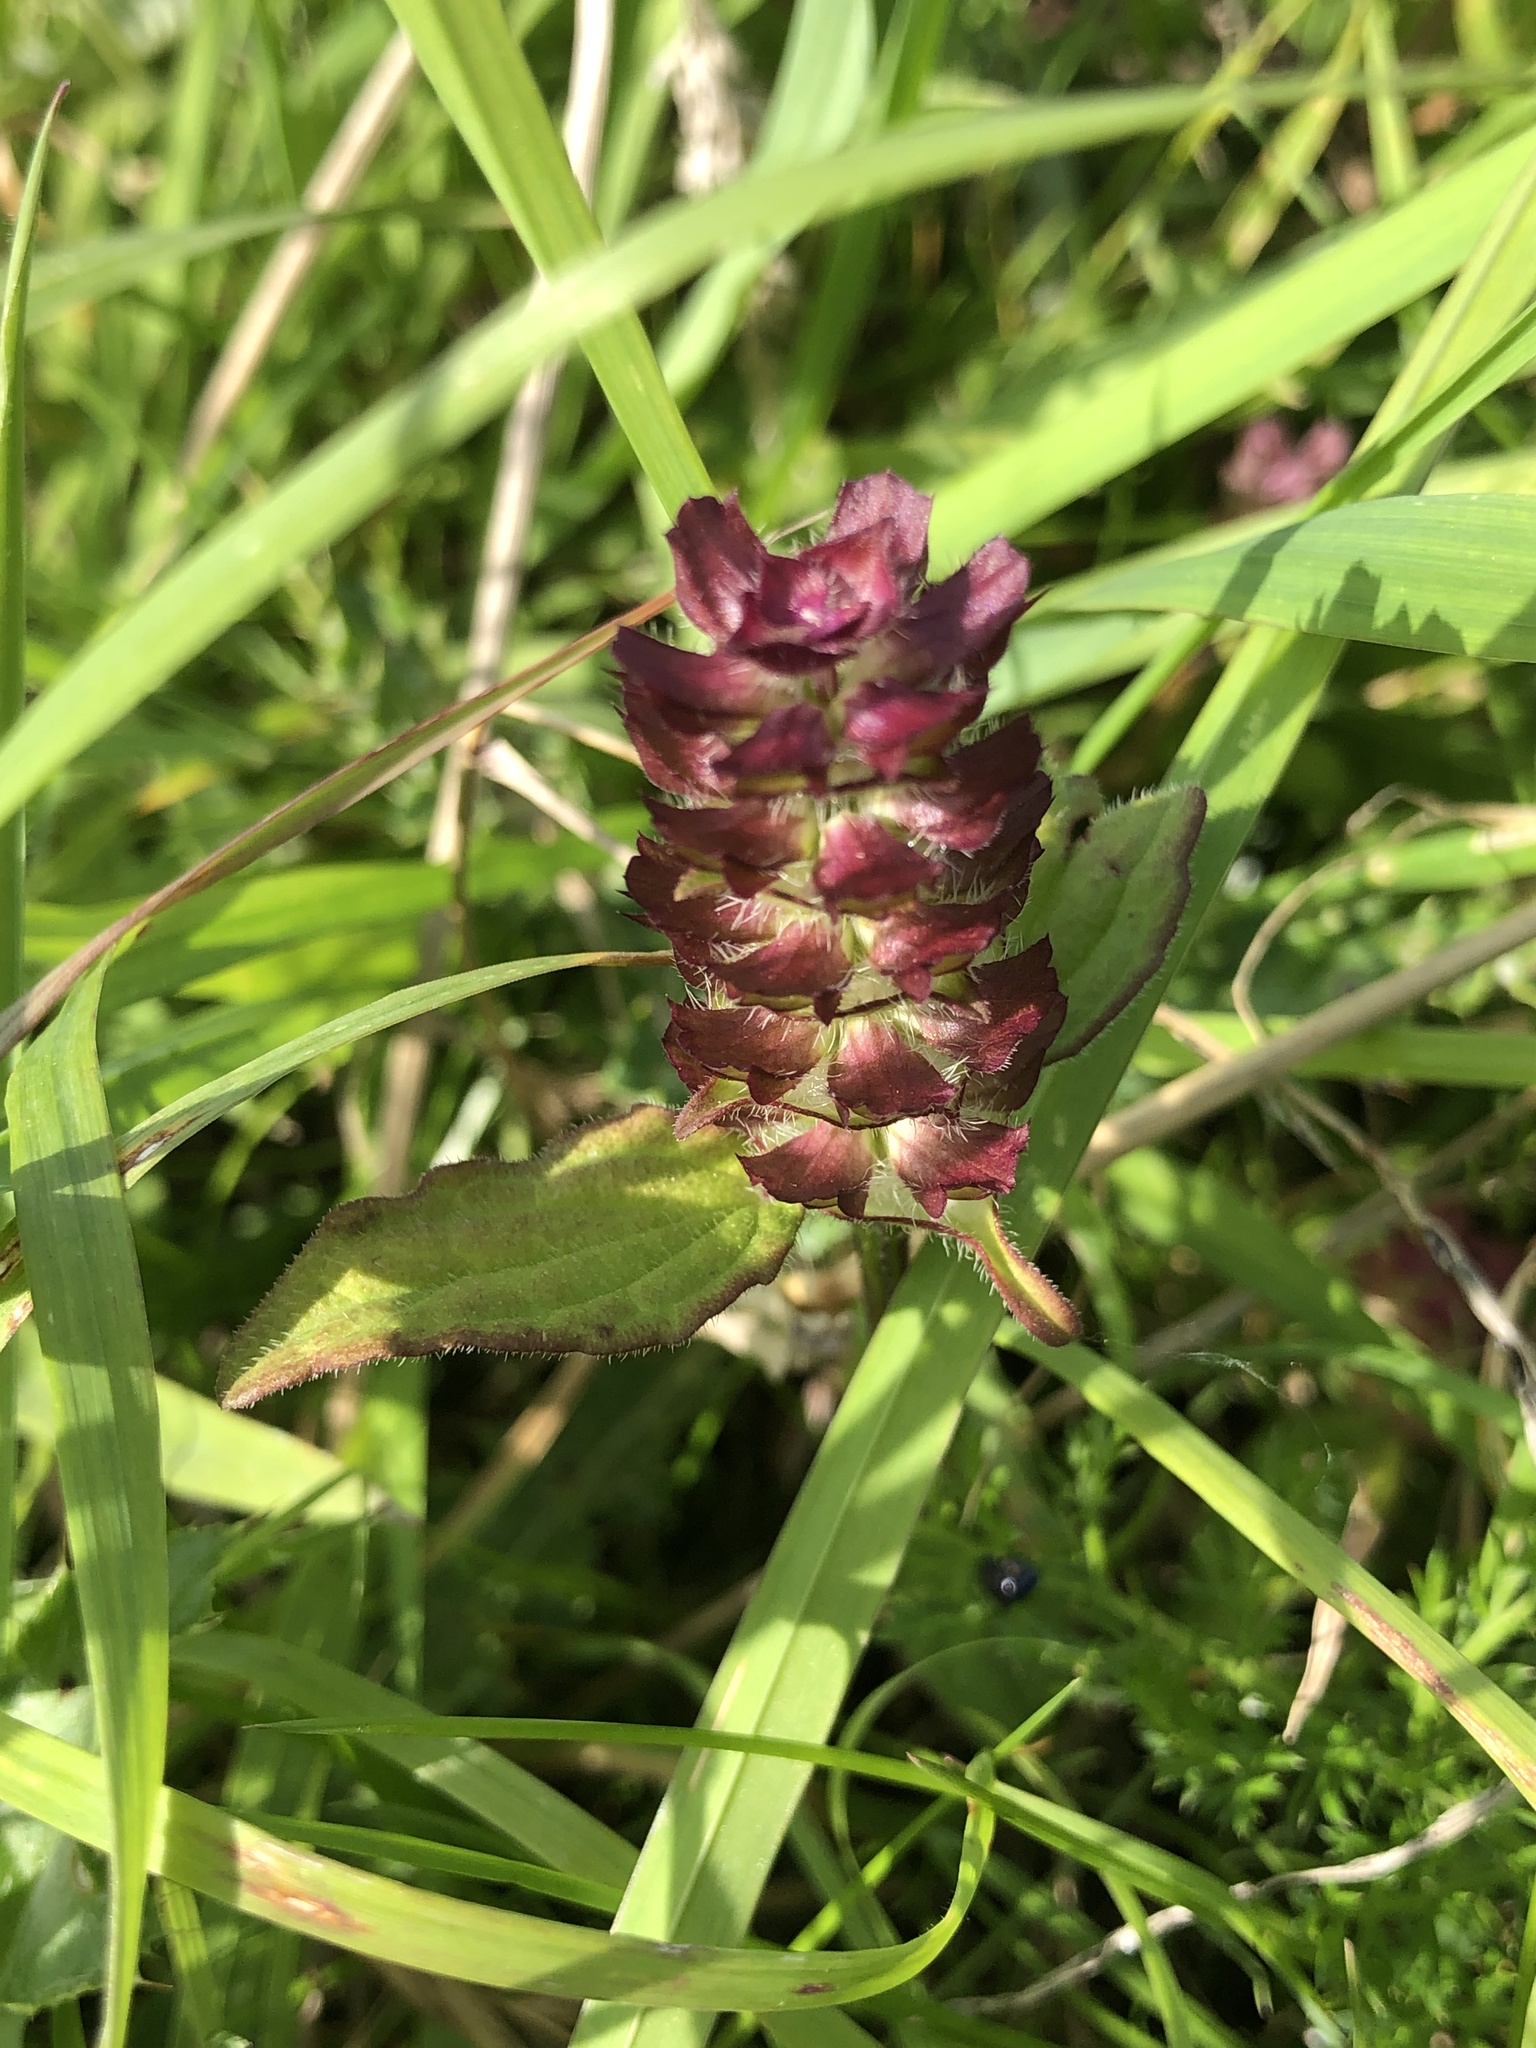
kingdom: Plantae
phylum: Tracheophyta
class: Magnoliopsida
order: Lamiales
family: Lamiaceae
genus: Prunella
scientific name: Prunella vulgaris
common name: Heal-all
